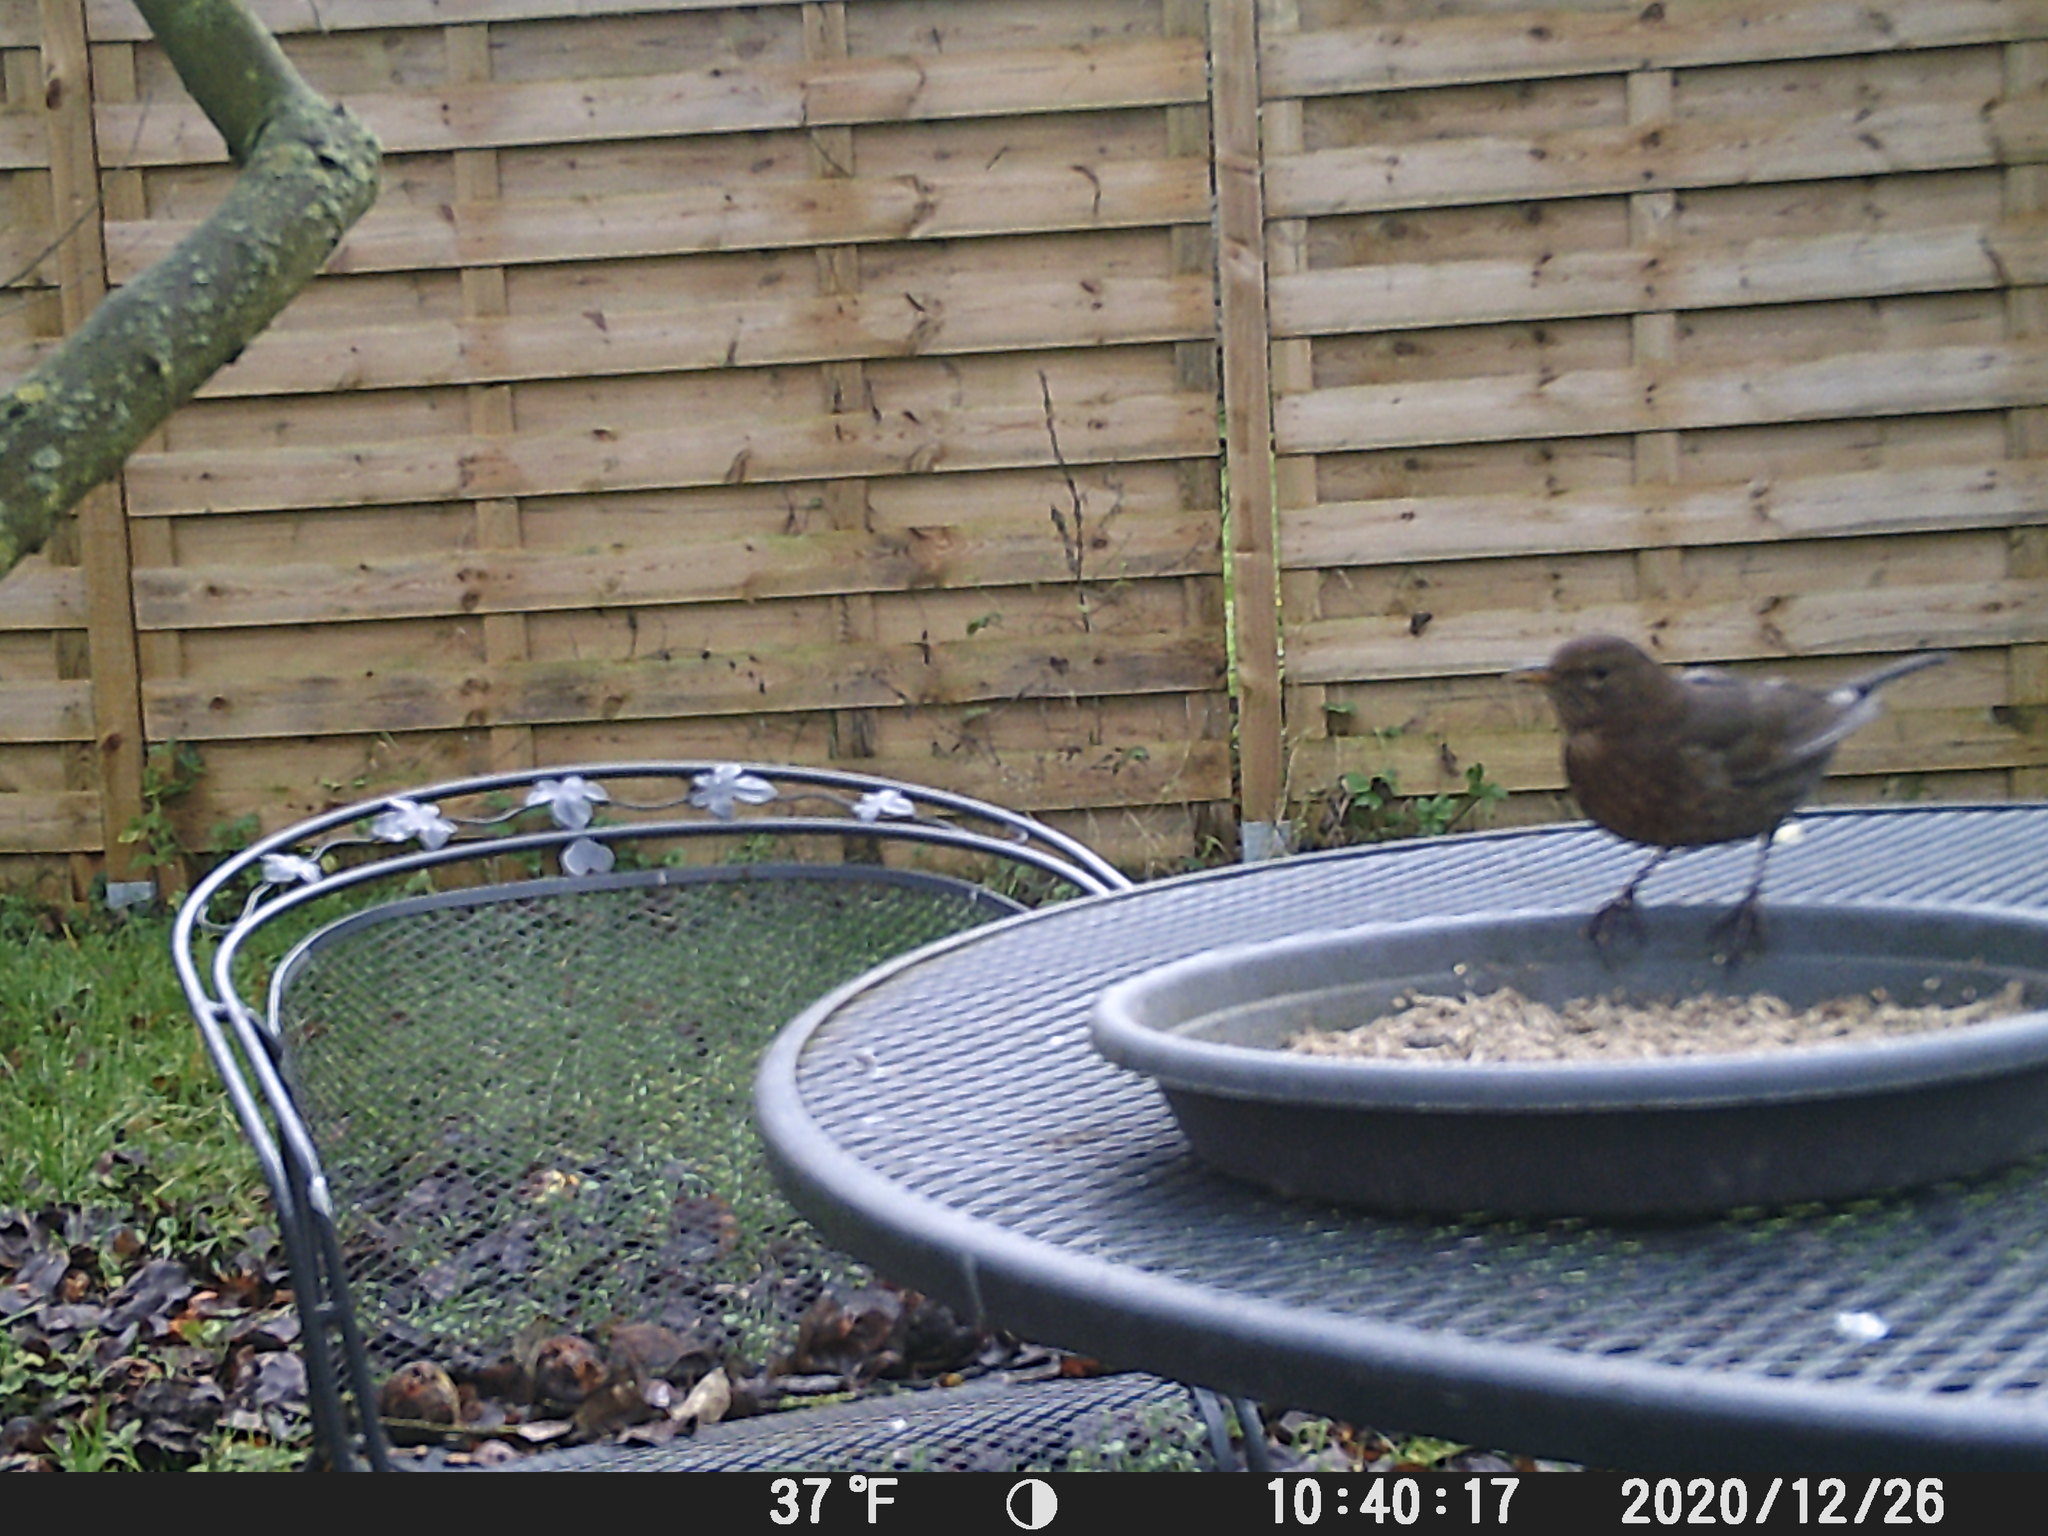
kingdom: Animalia
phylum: Chordata
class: Aves
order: Passeriformes
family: Turdidae
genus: Turdus
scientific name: Turdus merula
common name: Common blackbird
